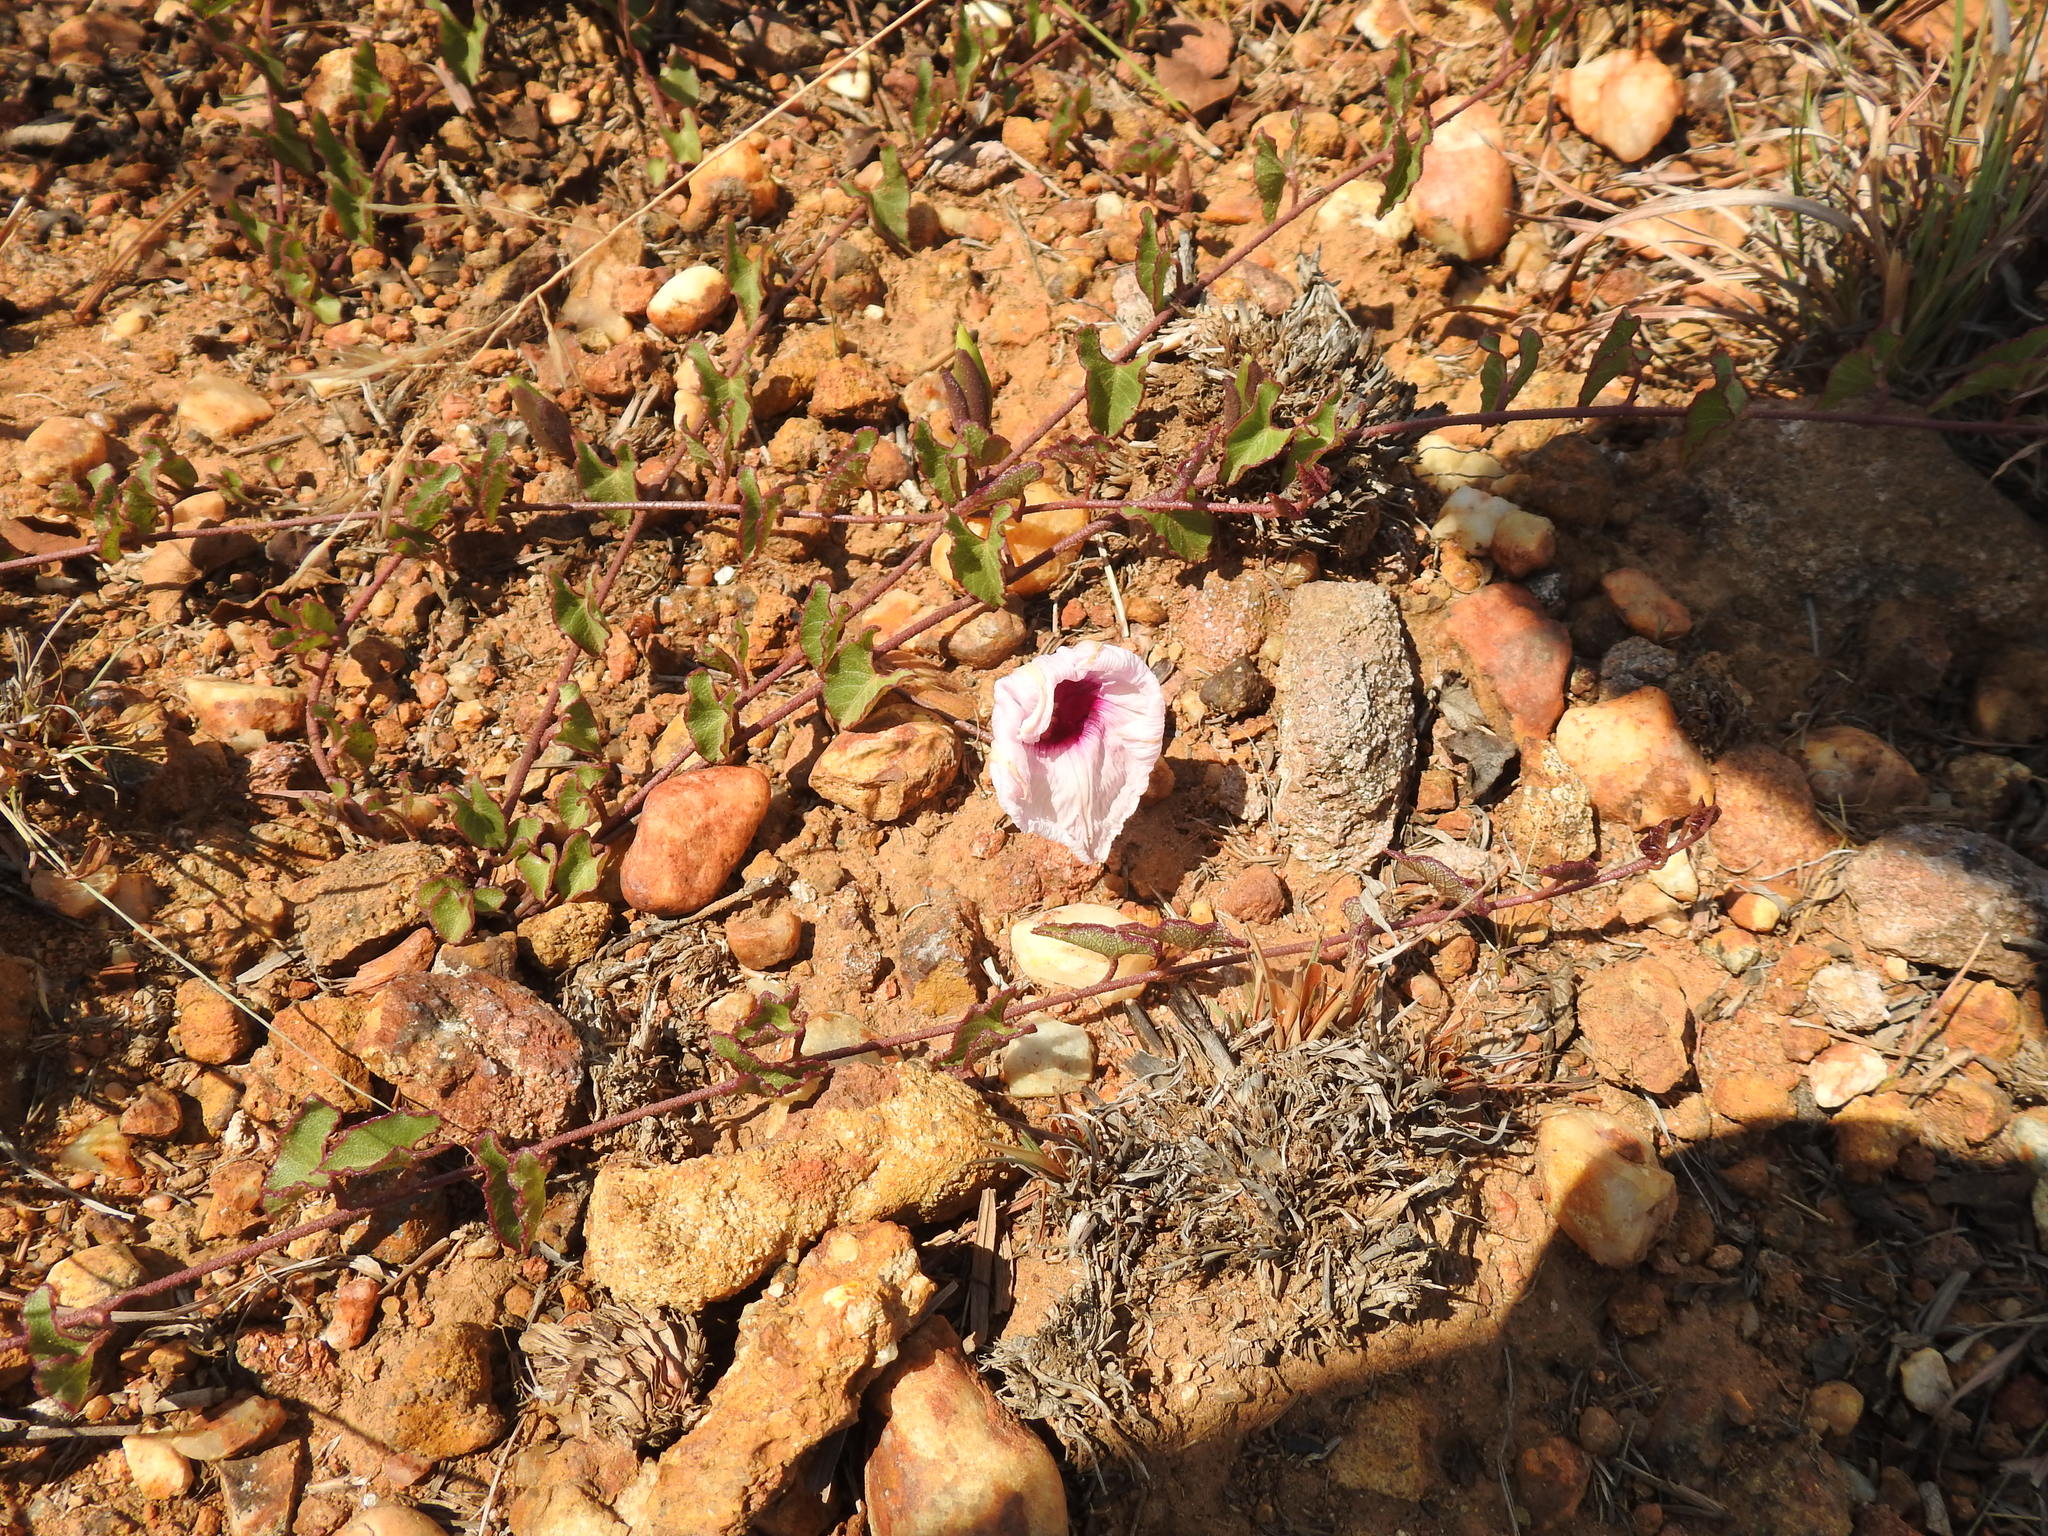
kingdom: Plantae
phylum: Tracheophyta
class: Magnoliopsida
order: Solanales
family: Convolvulaceae
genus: Ipomoea
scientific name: Ipomoea bathycolpos
